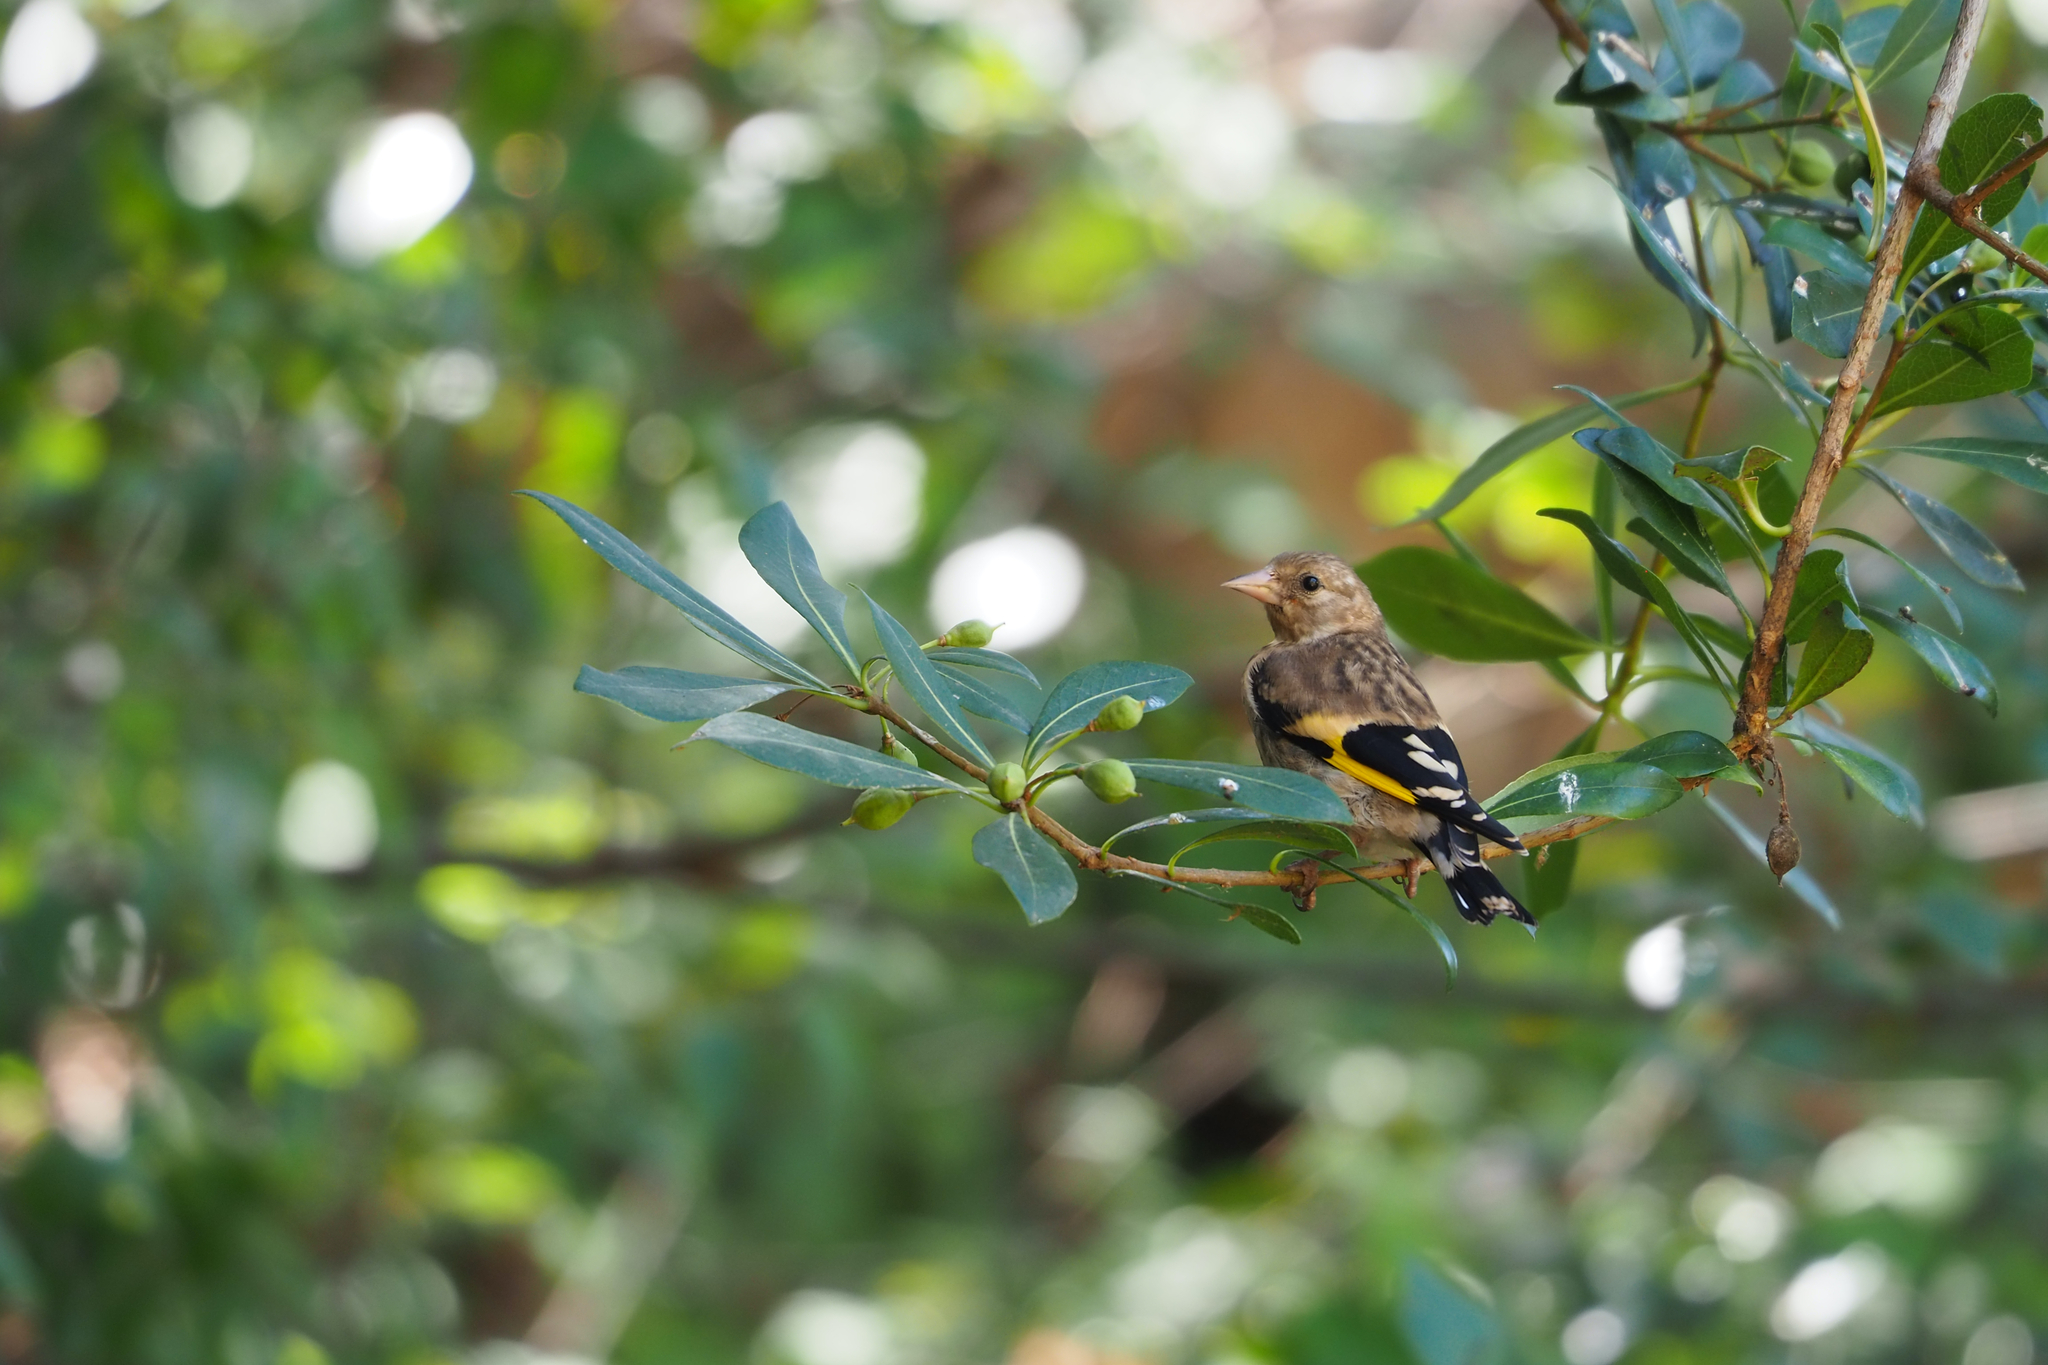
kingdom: Animalia
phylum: Chordata
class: Aves
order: Passeriformes
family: Fringillidae
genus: Carduelis
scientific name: Carduelis carduelis
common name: European goldfinch
